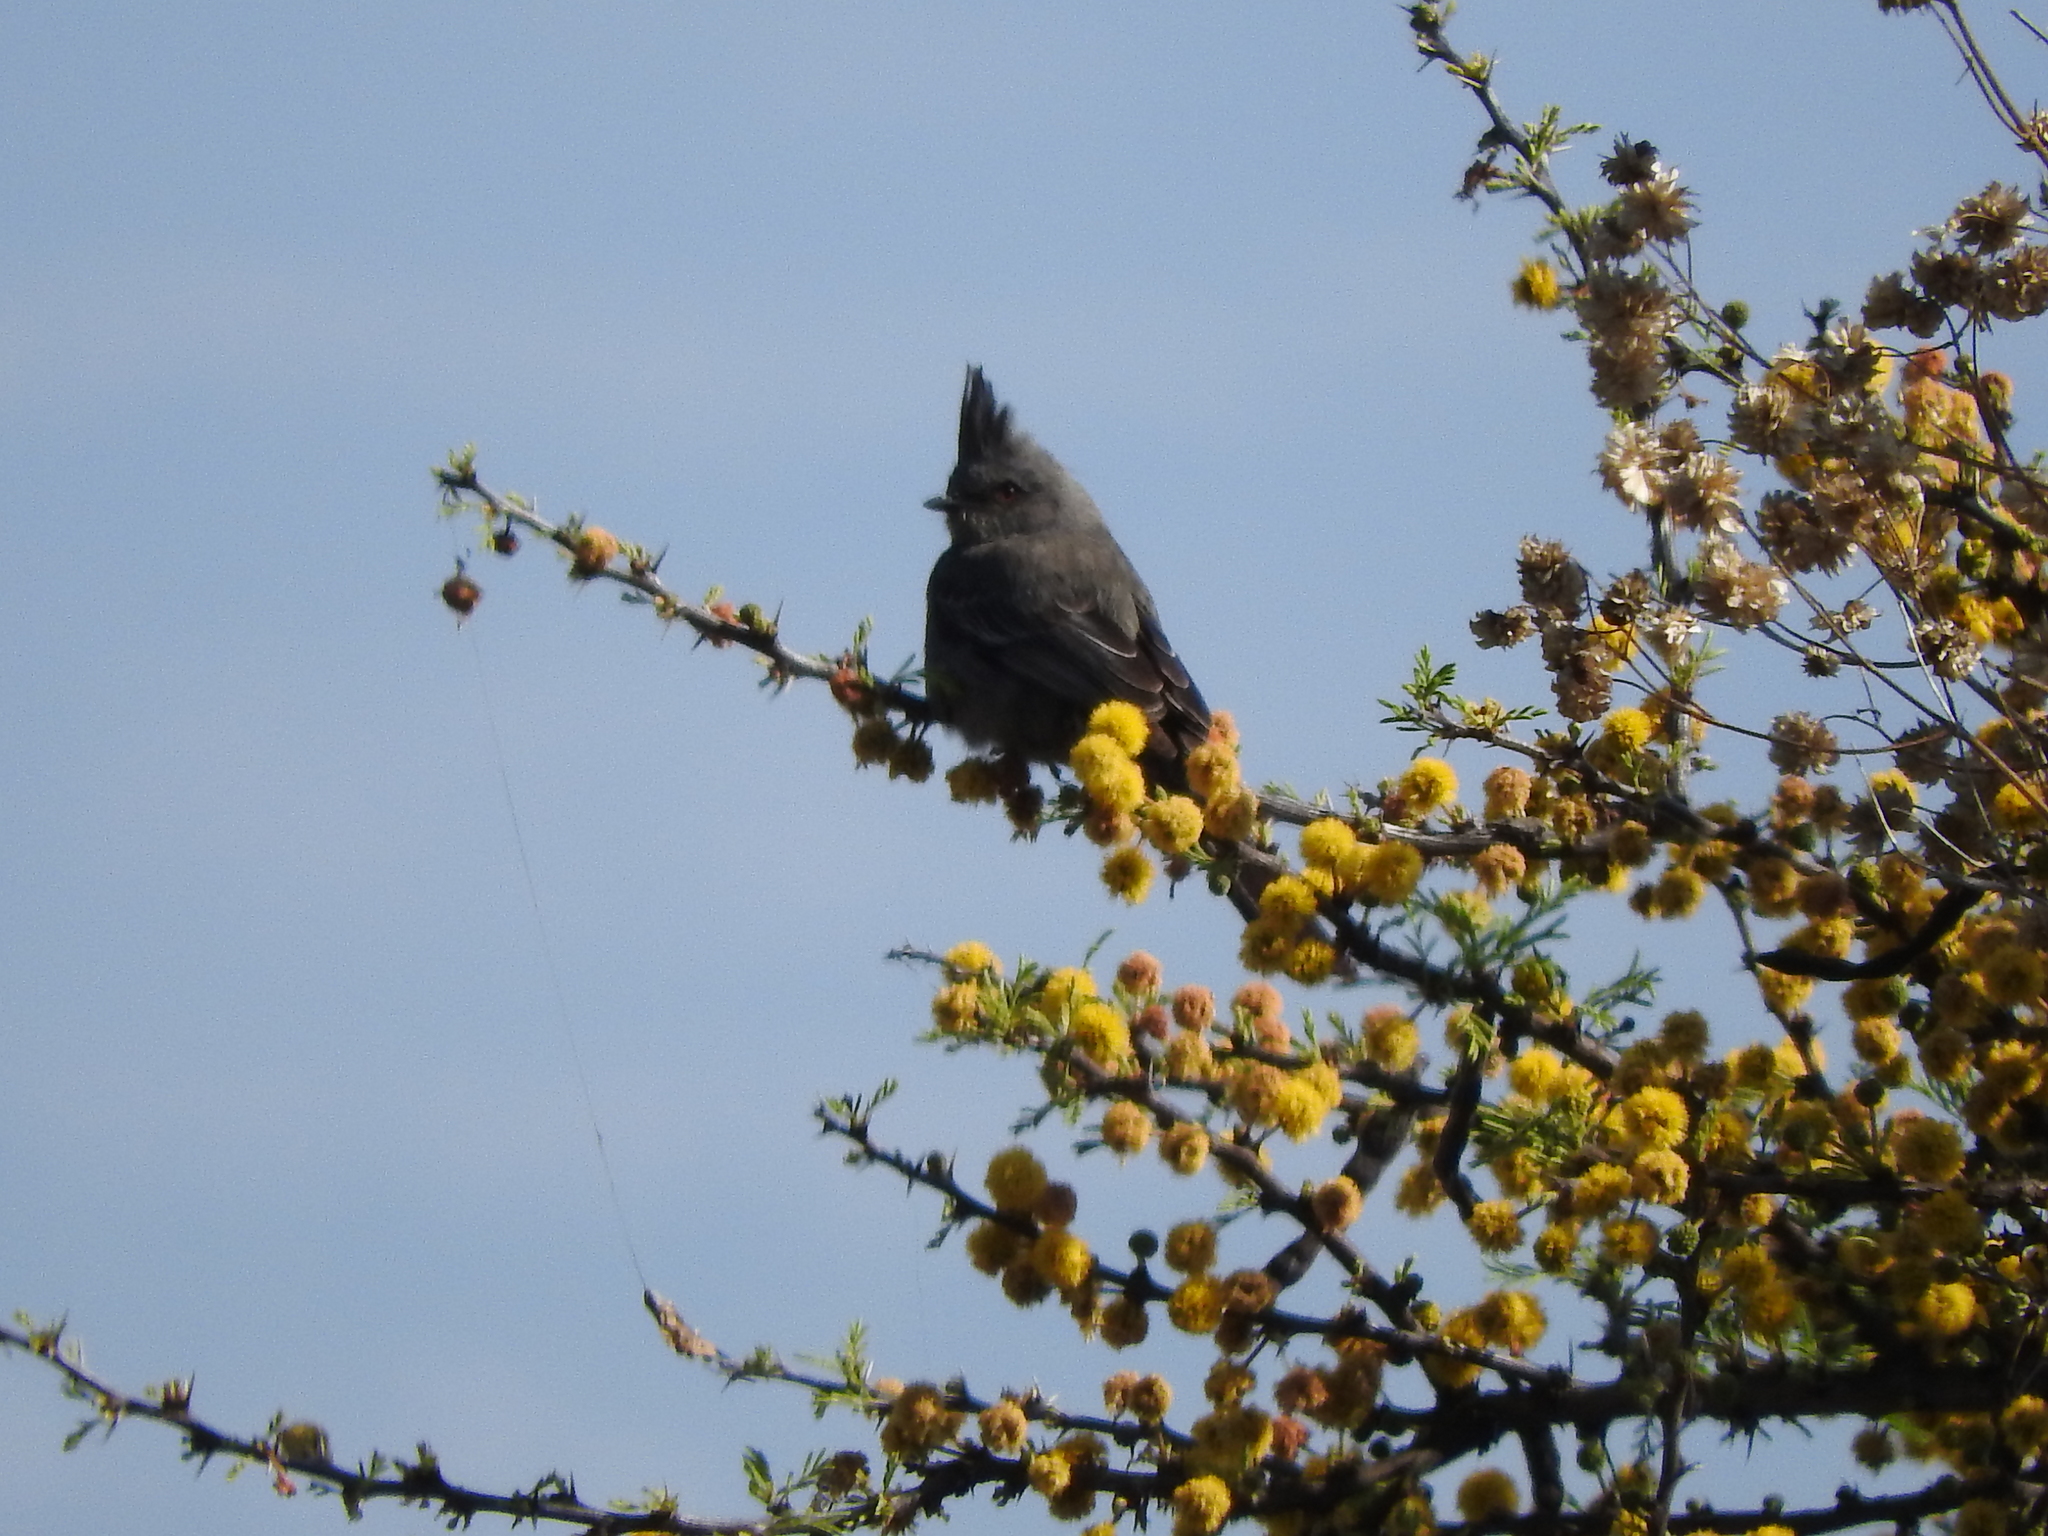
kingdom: Animalia
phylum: Chordata
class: Aves
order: Passeriformes
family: Ptilogonatidae
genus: Phainopepla
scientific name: Phainopepla nitens
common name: Phainopepla
